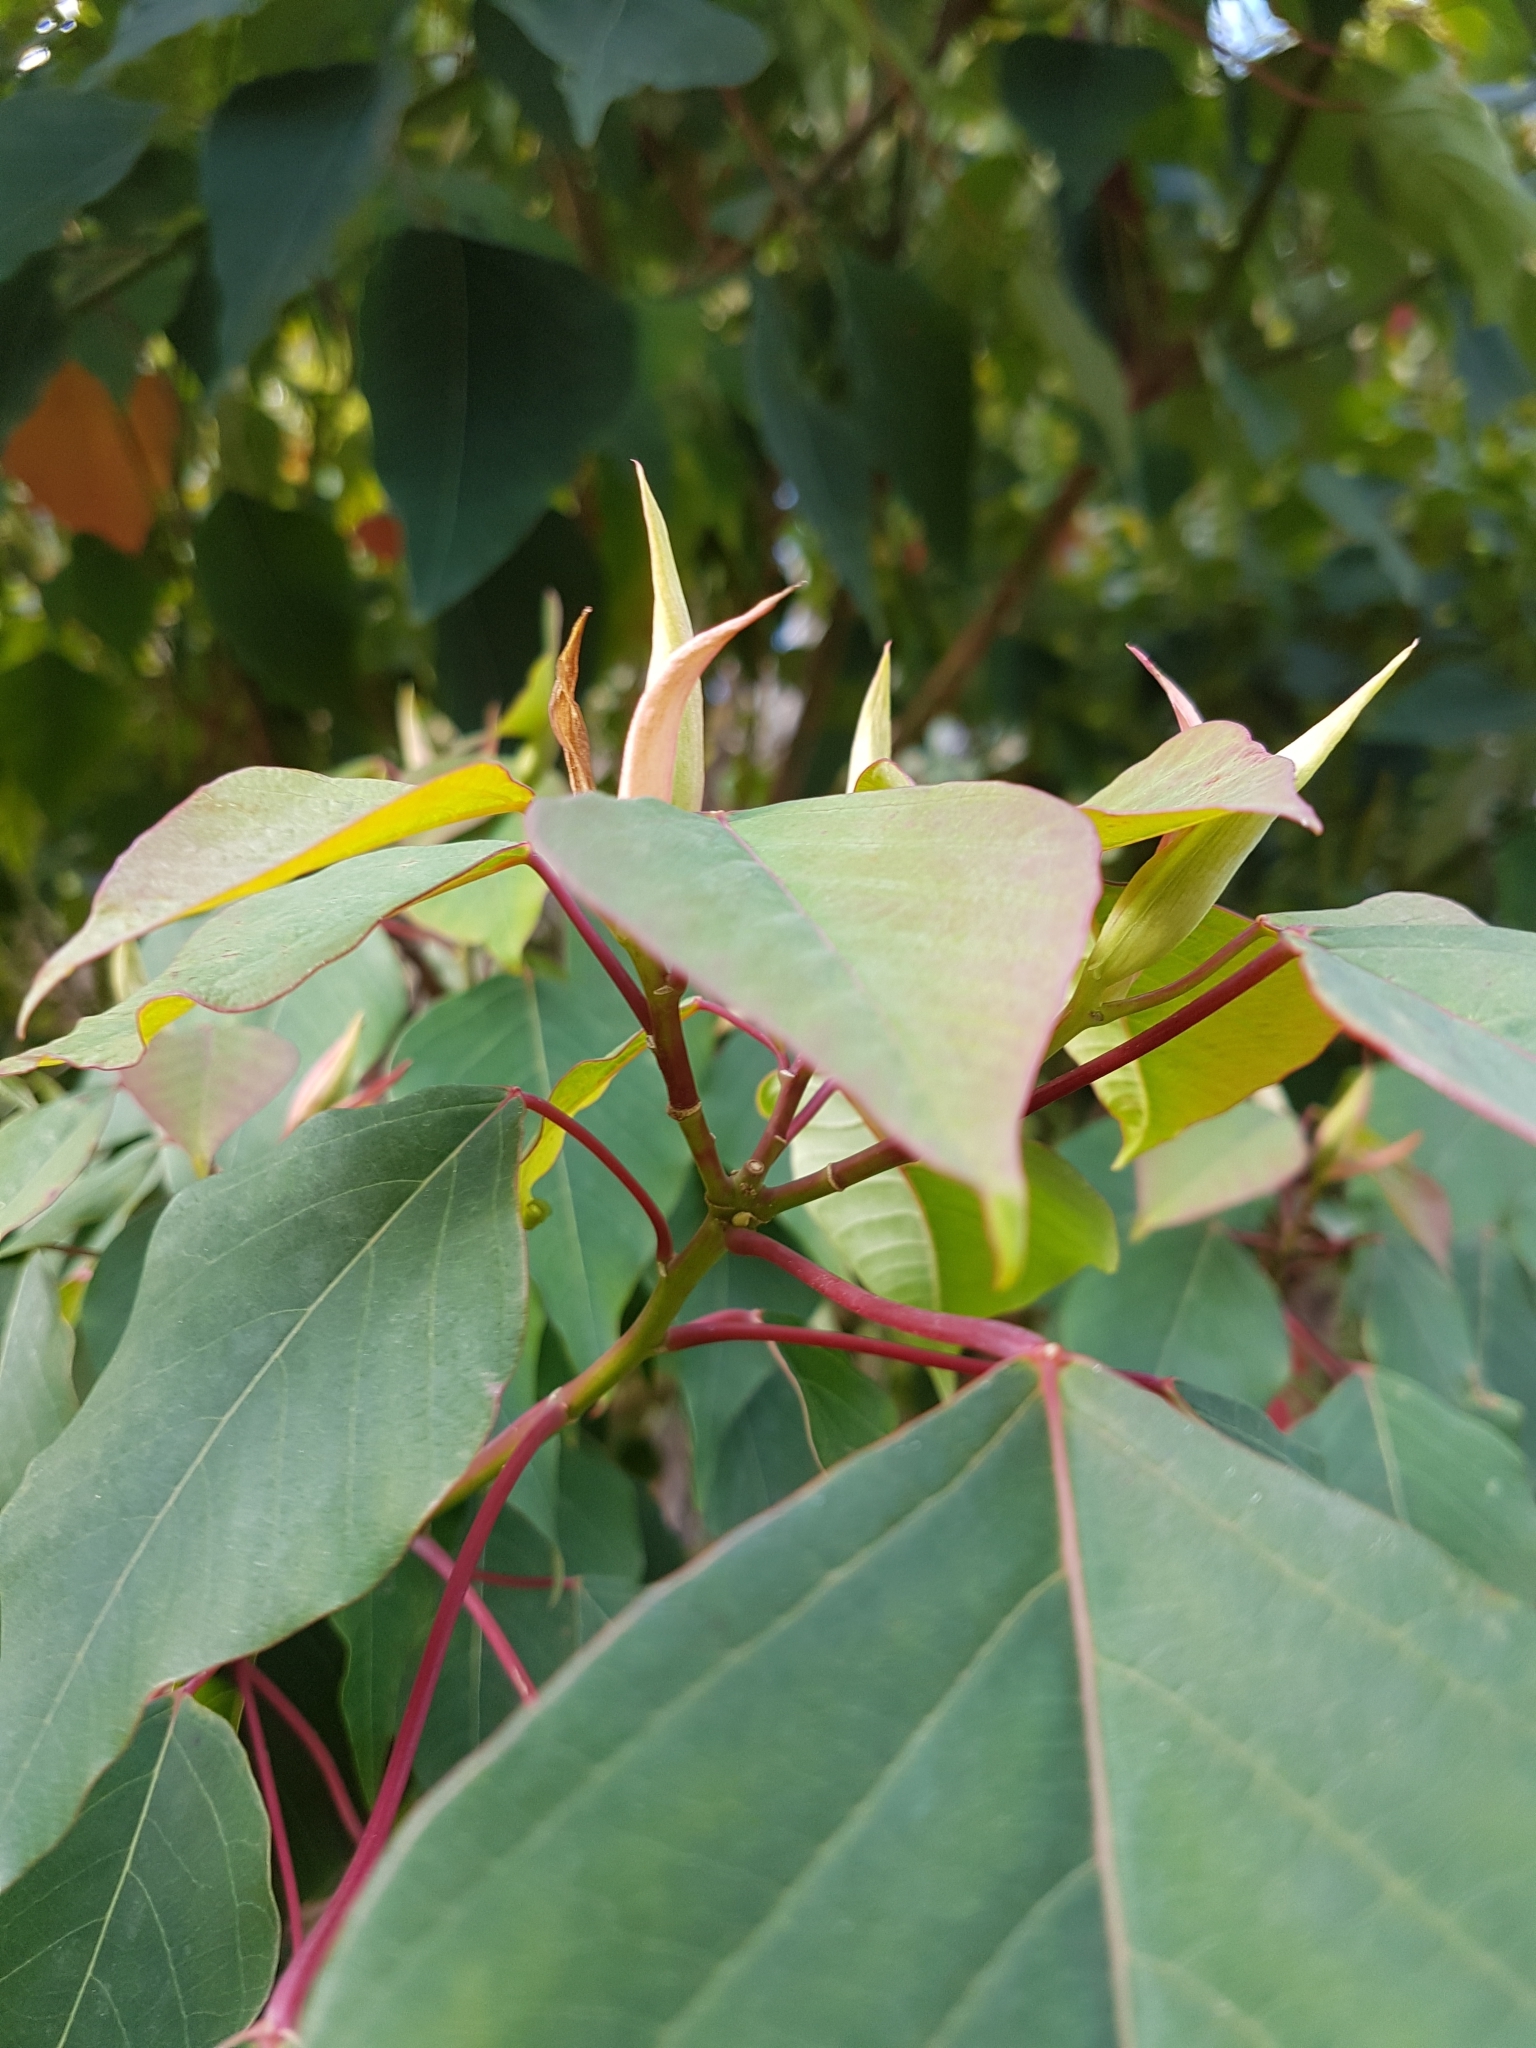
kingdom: Plantae
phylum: Tracheophyta
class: Magnoliopsida
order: Malpighiales
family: Euphorbiaceae
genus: Homalanthus
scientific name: Homalanthus populifolius
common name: Queensland poplar
